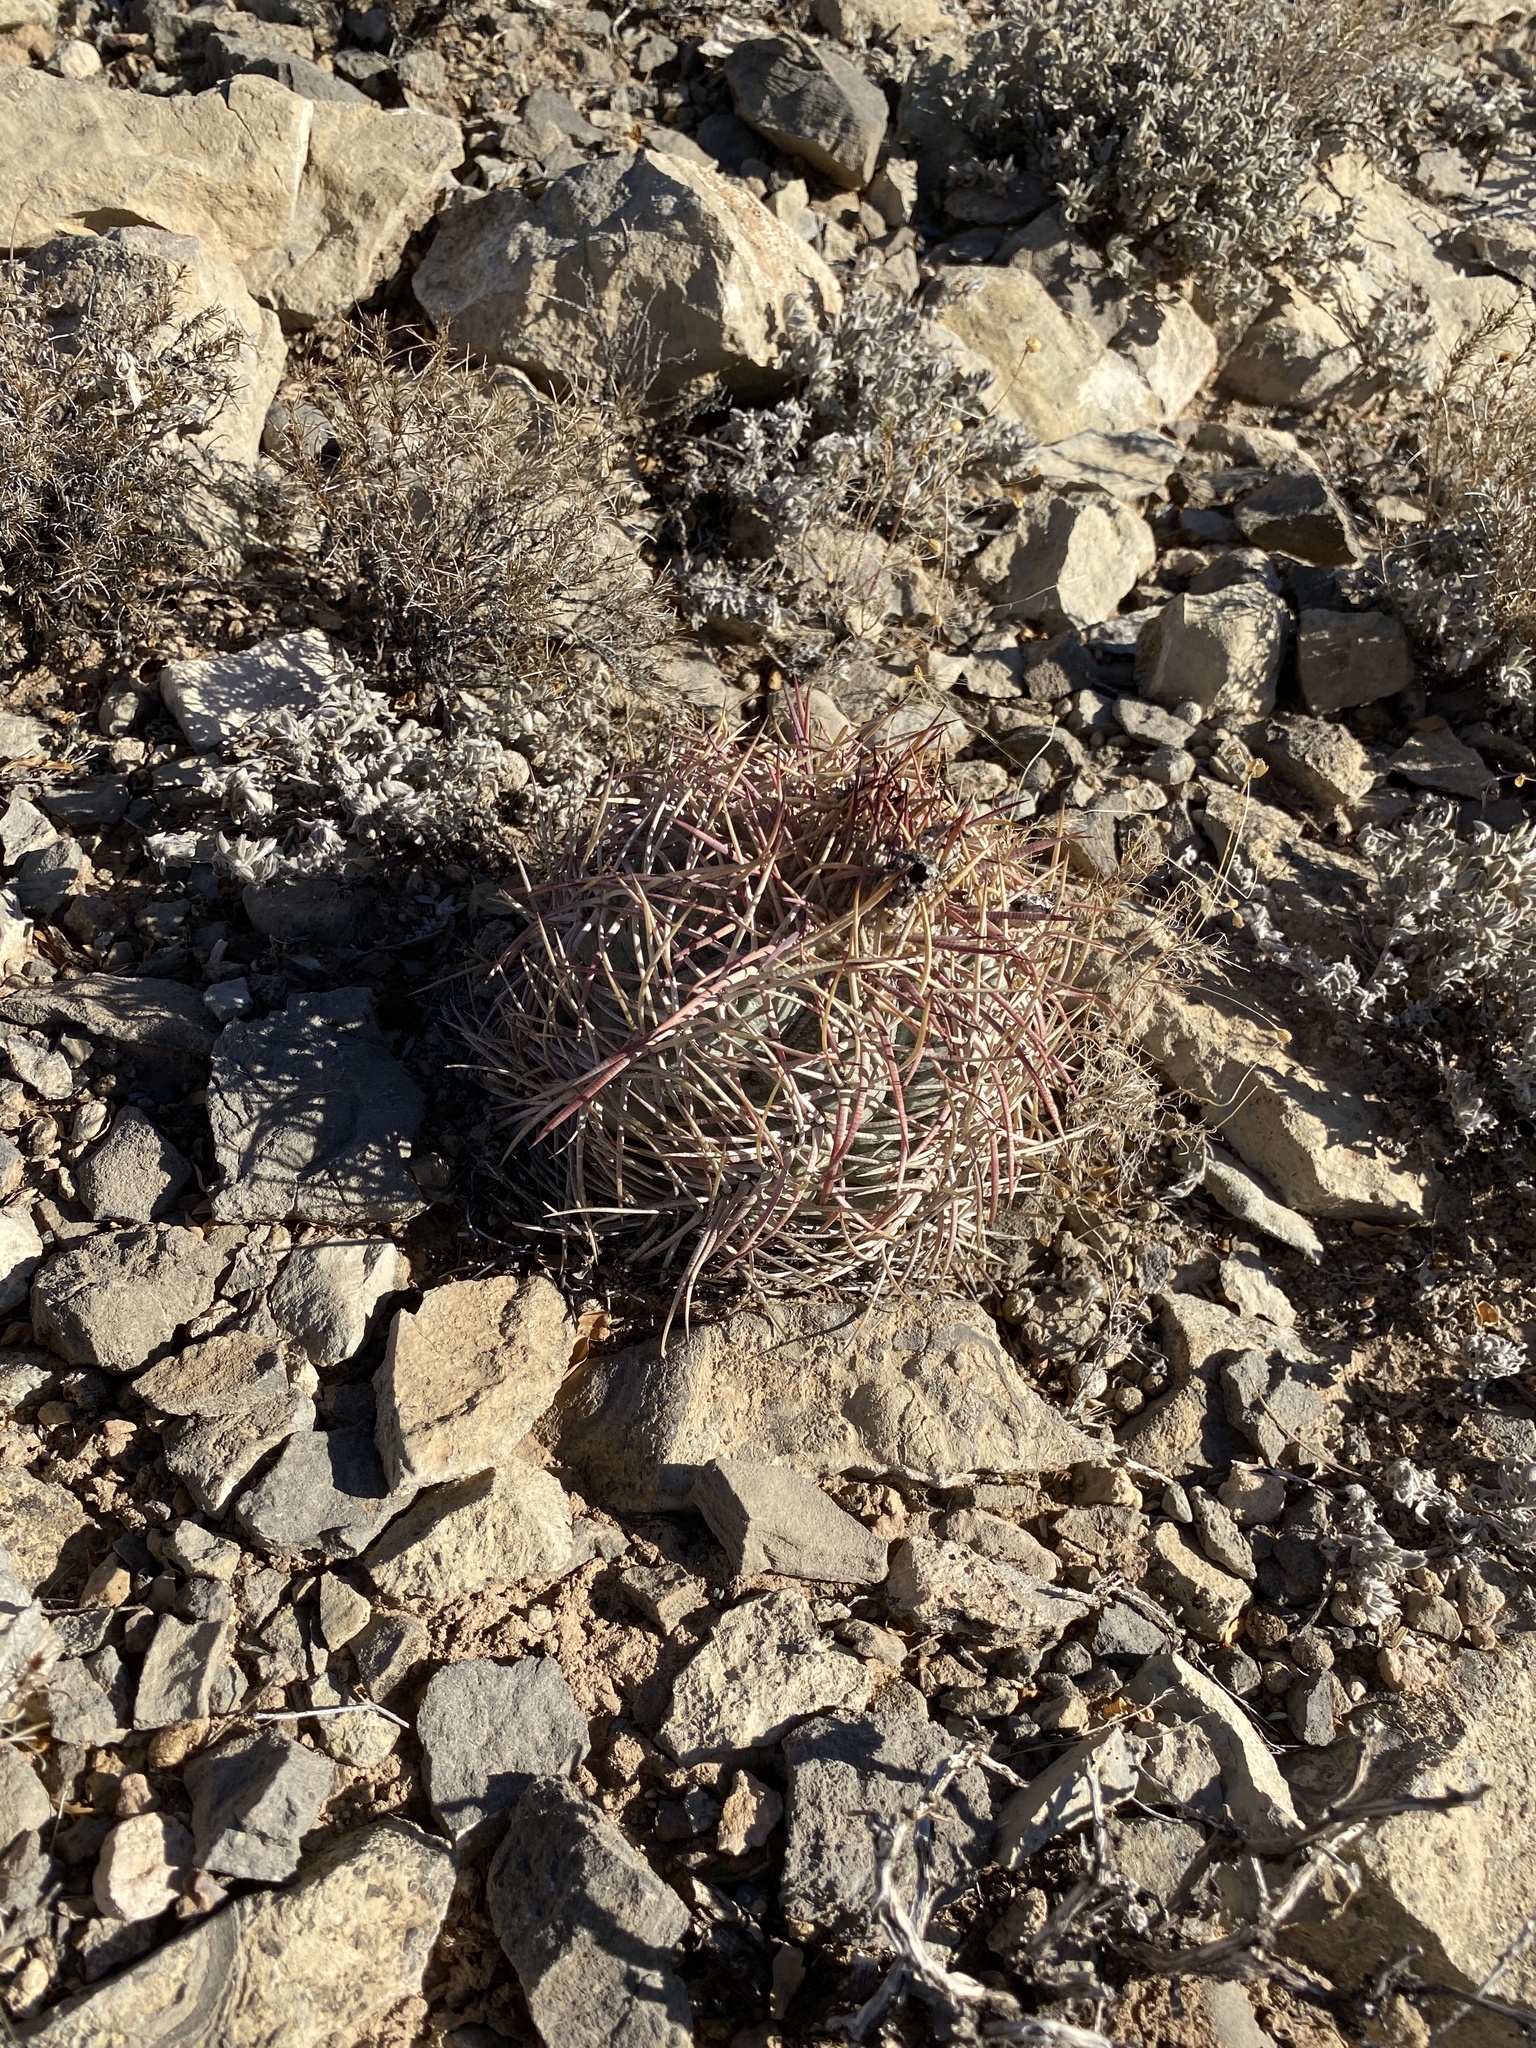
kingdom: Plantae
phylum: Tracheophyta
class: Magnoliopsida
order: Caryophyllales
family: Cactaceae
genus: Echinocactus
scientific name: Echinocactus horizonthalonius
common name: Devilshead
